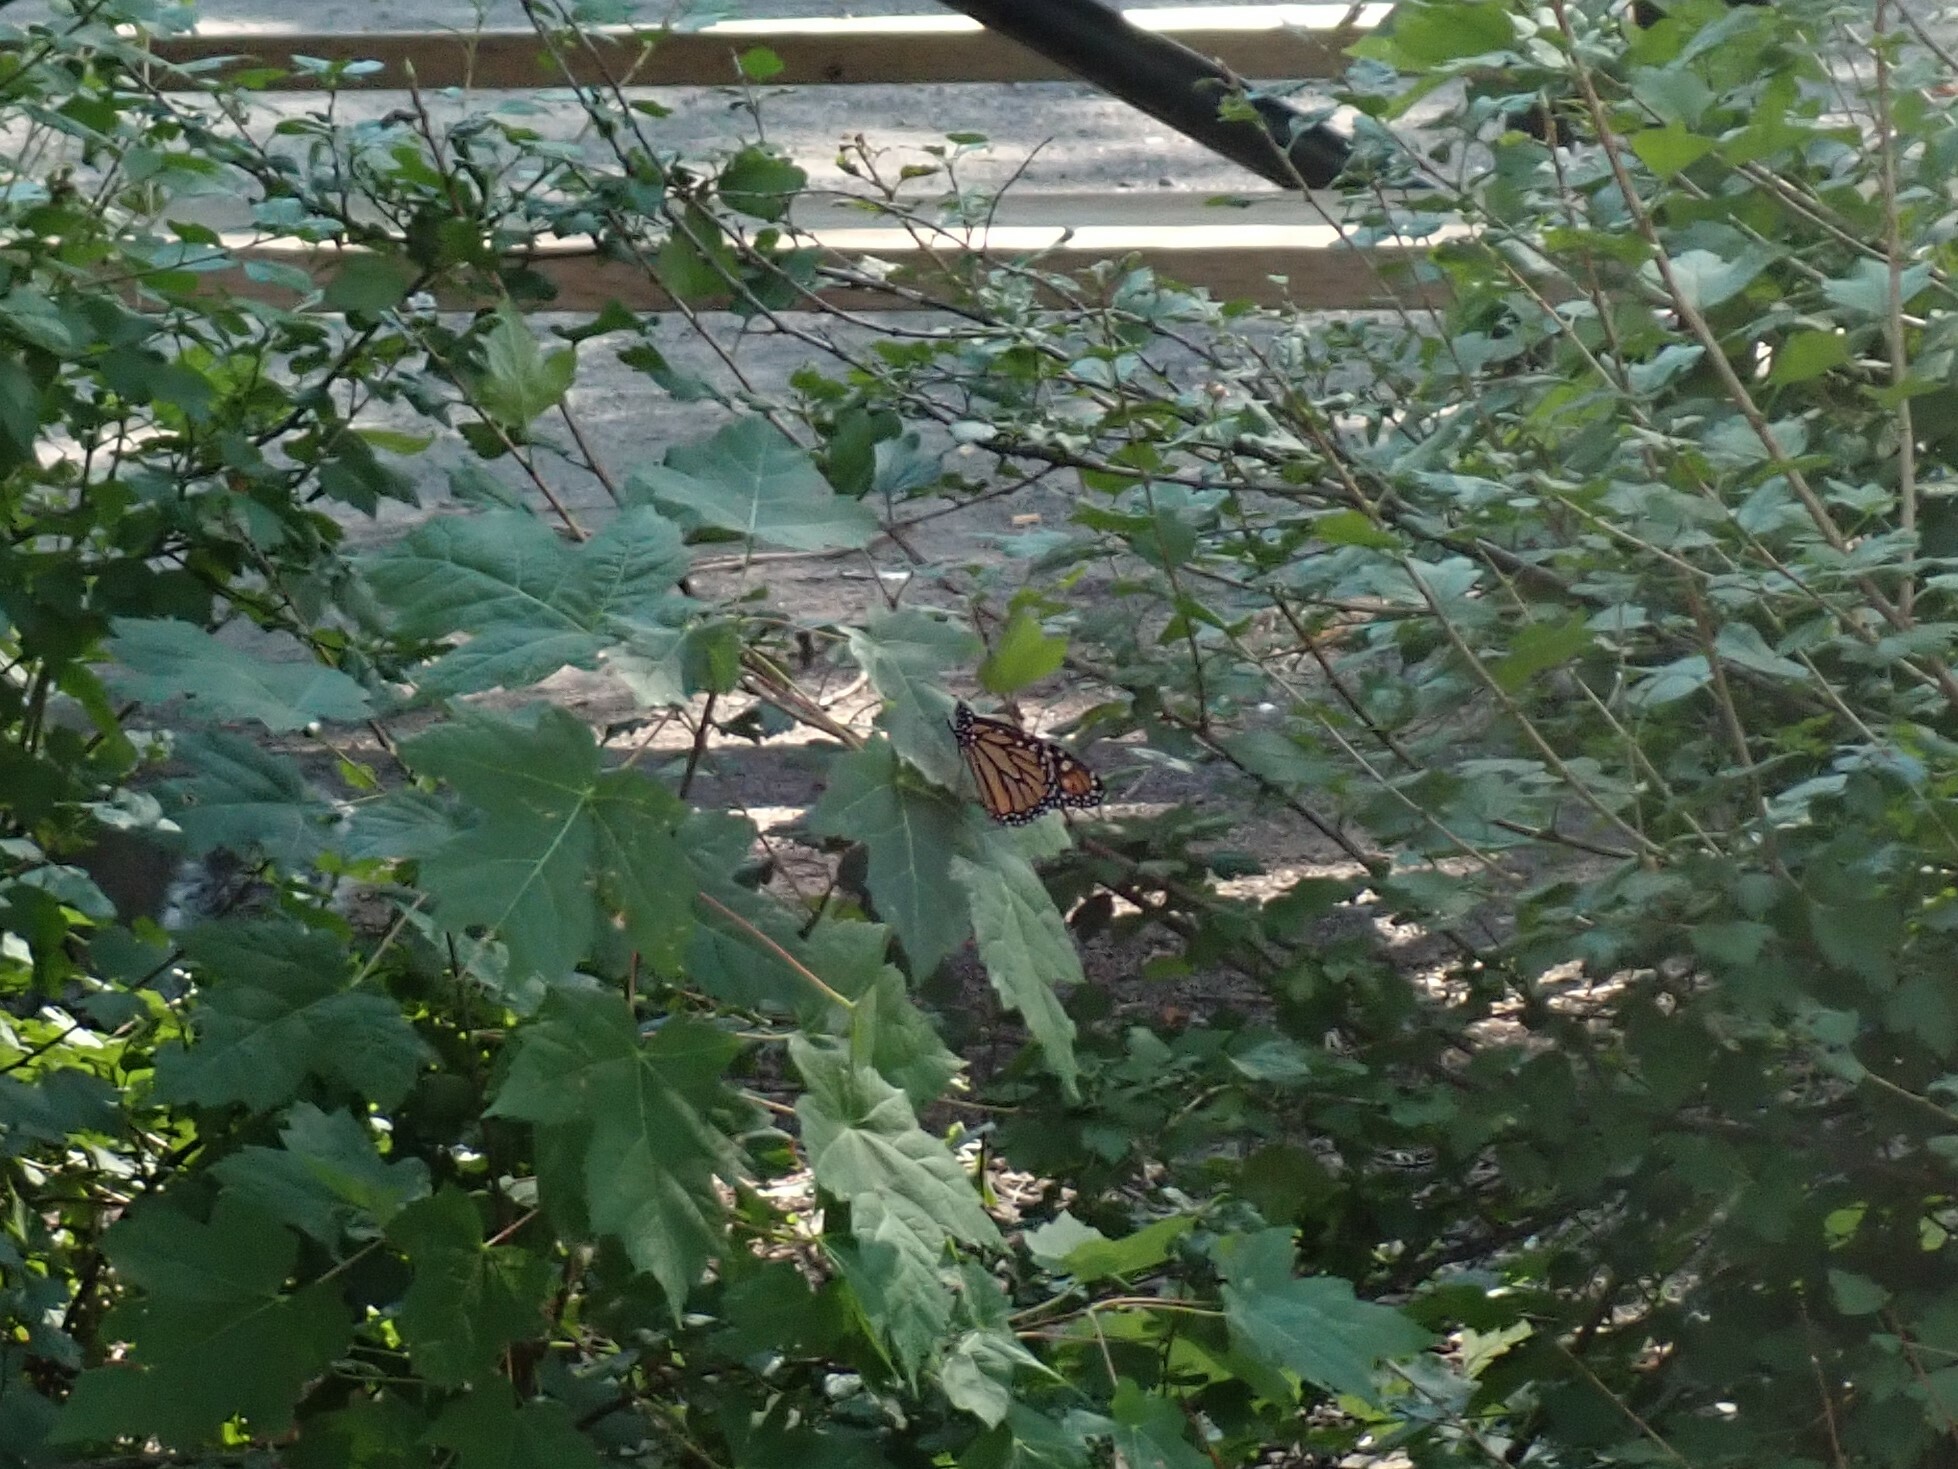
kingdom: Animalia
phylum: Arthropoda
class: Insecta
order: Lepidoptera
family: Nymphalidae
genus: Danaus
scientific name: Danaus plexippus
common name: Monarch
